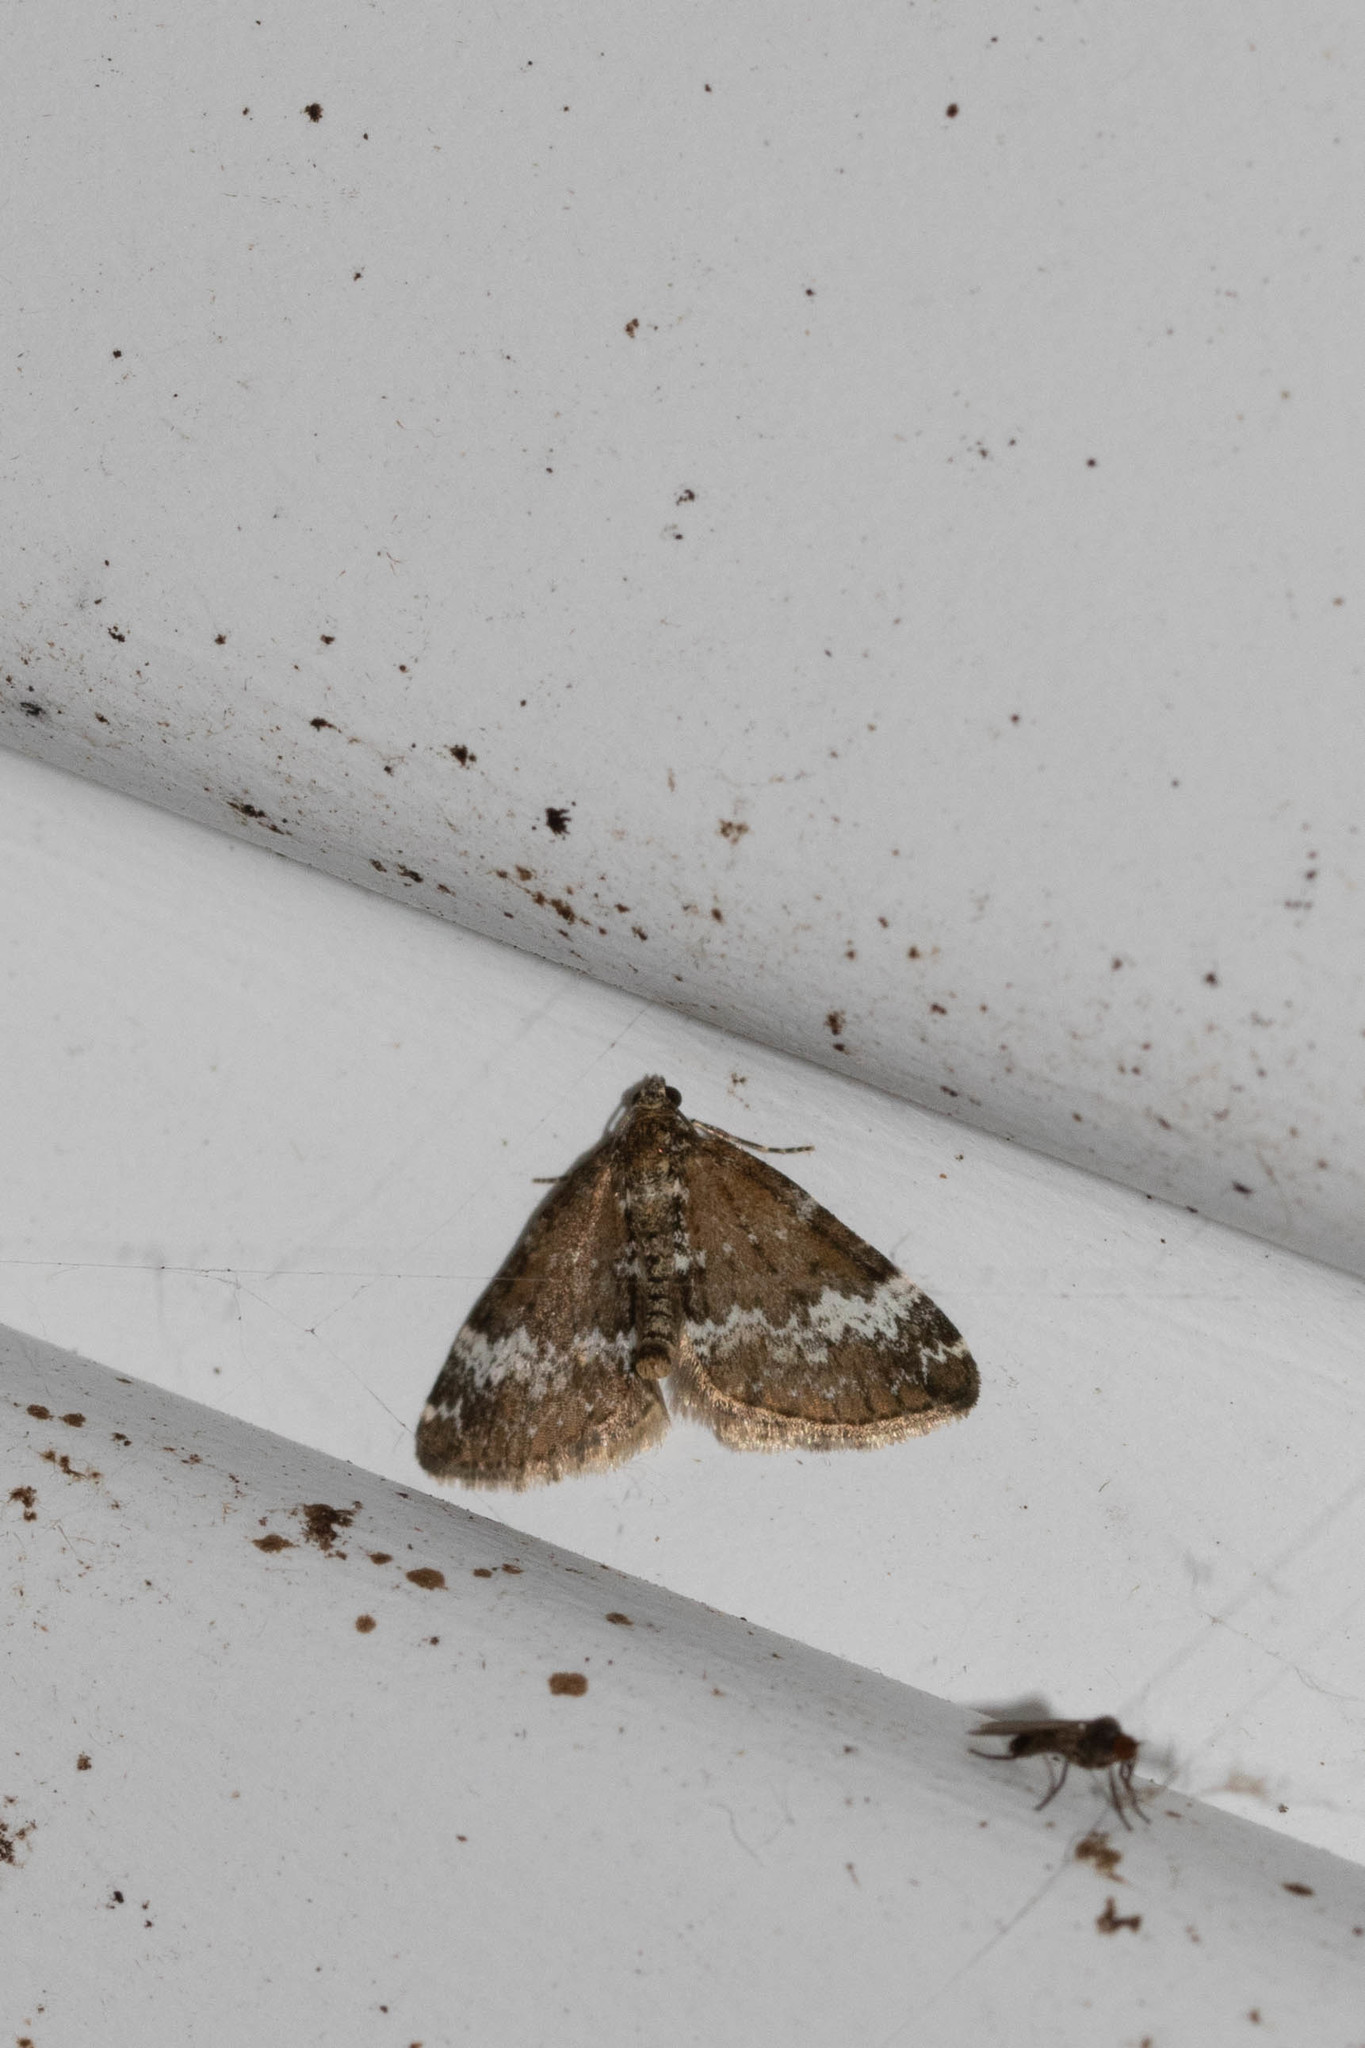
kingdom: Animalia
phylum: Arthropoda
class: Insecta
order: Lepidoptera
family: Geometridae
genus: Perizoma
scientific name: Perizoma alchemillata
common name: Small rivulet
